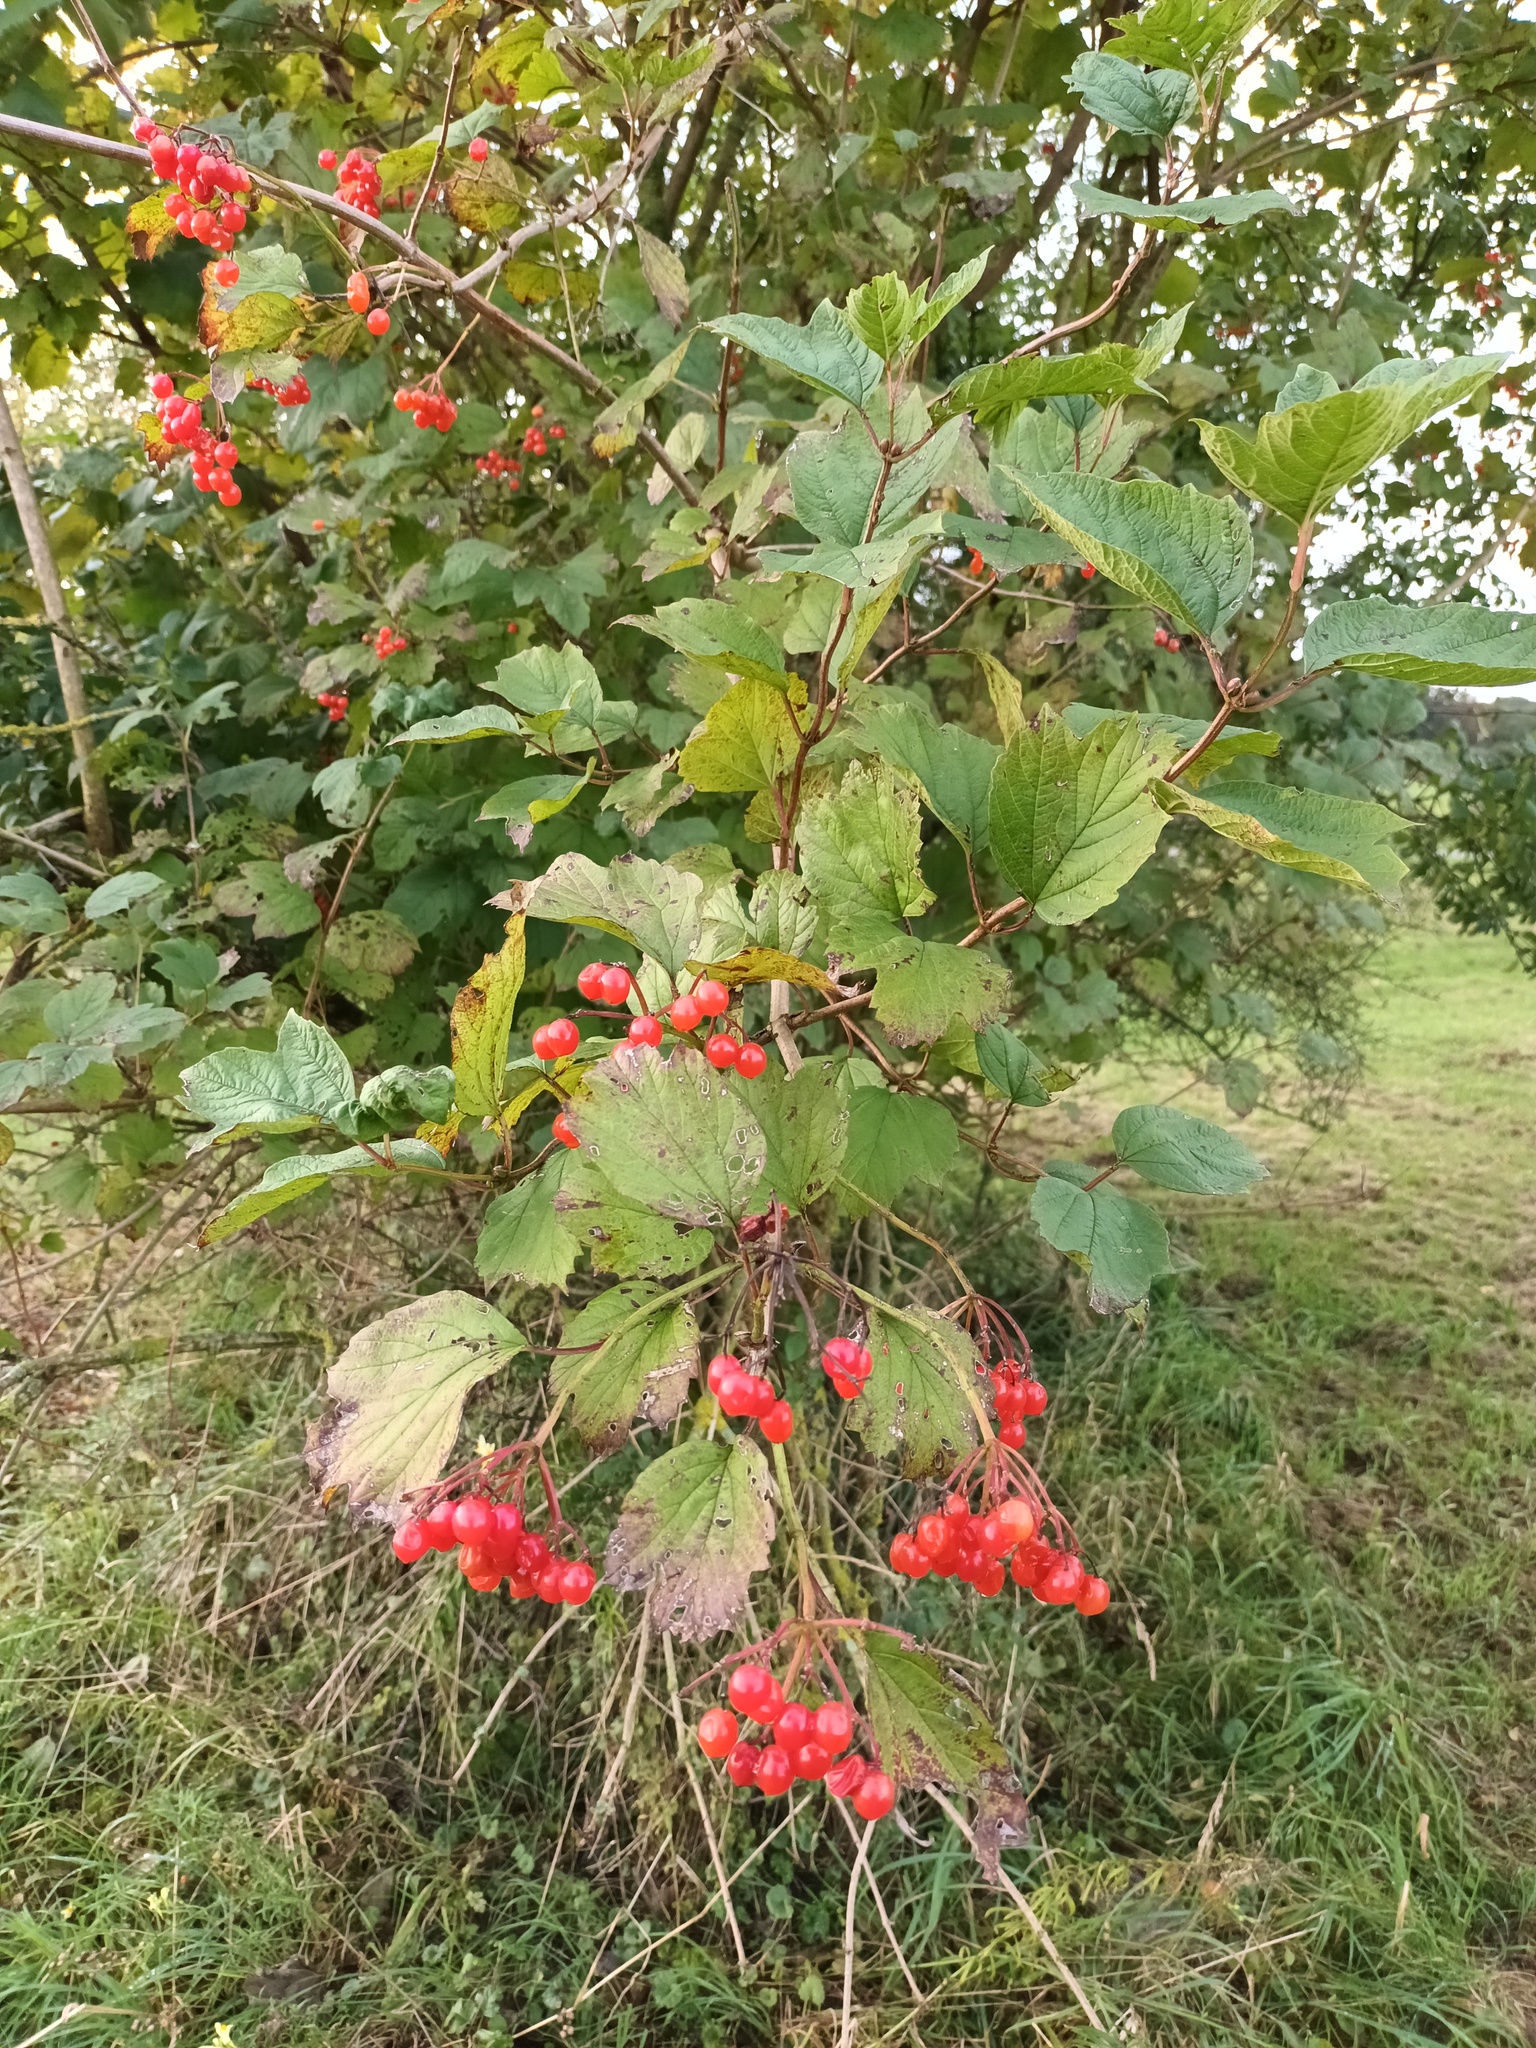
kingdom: Plantae
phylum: Tracheophyta
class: Magnoliopsida
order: Dipsacales
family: Viburnaceae
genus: Viburnum
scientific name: Viburnum opulus
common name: Guelder-rose
